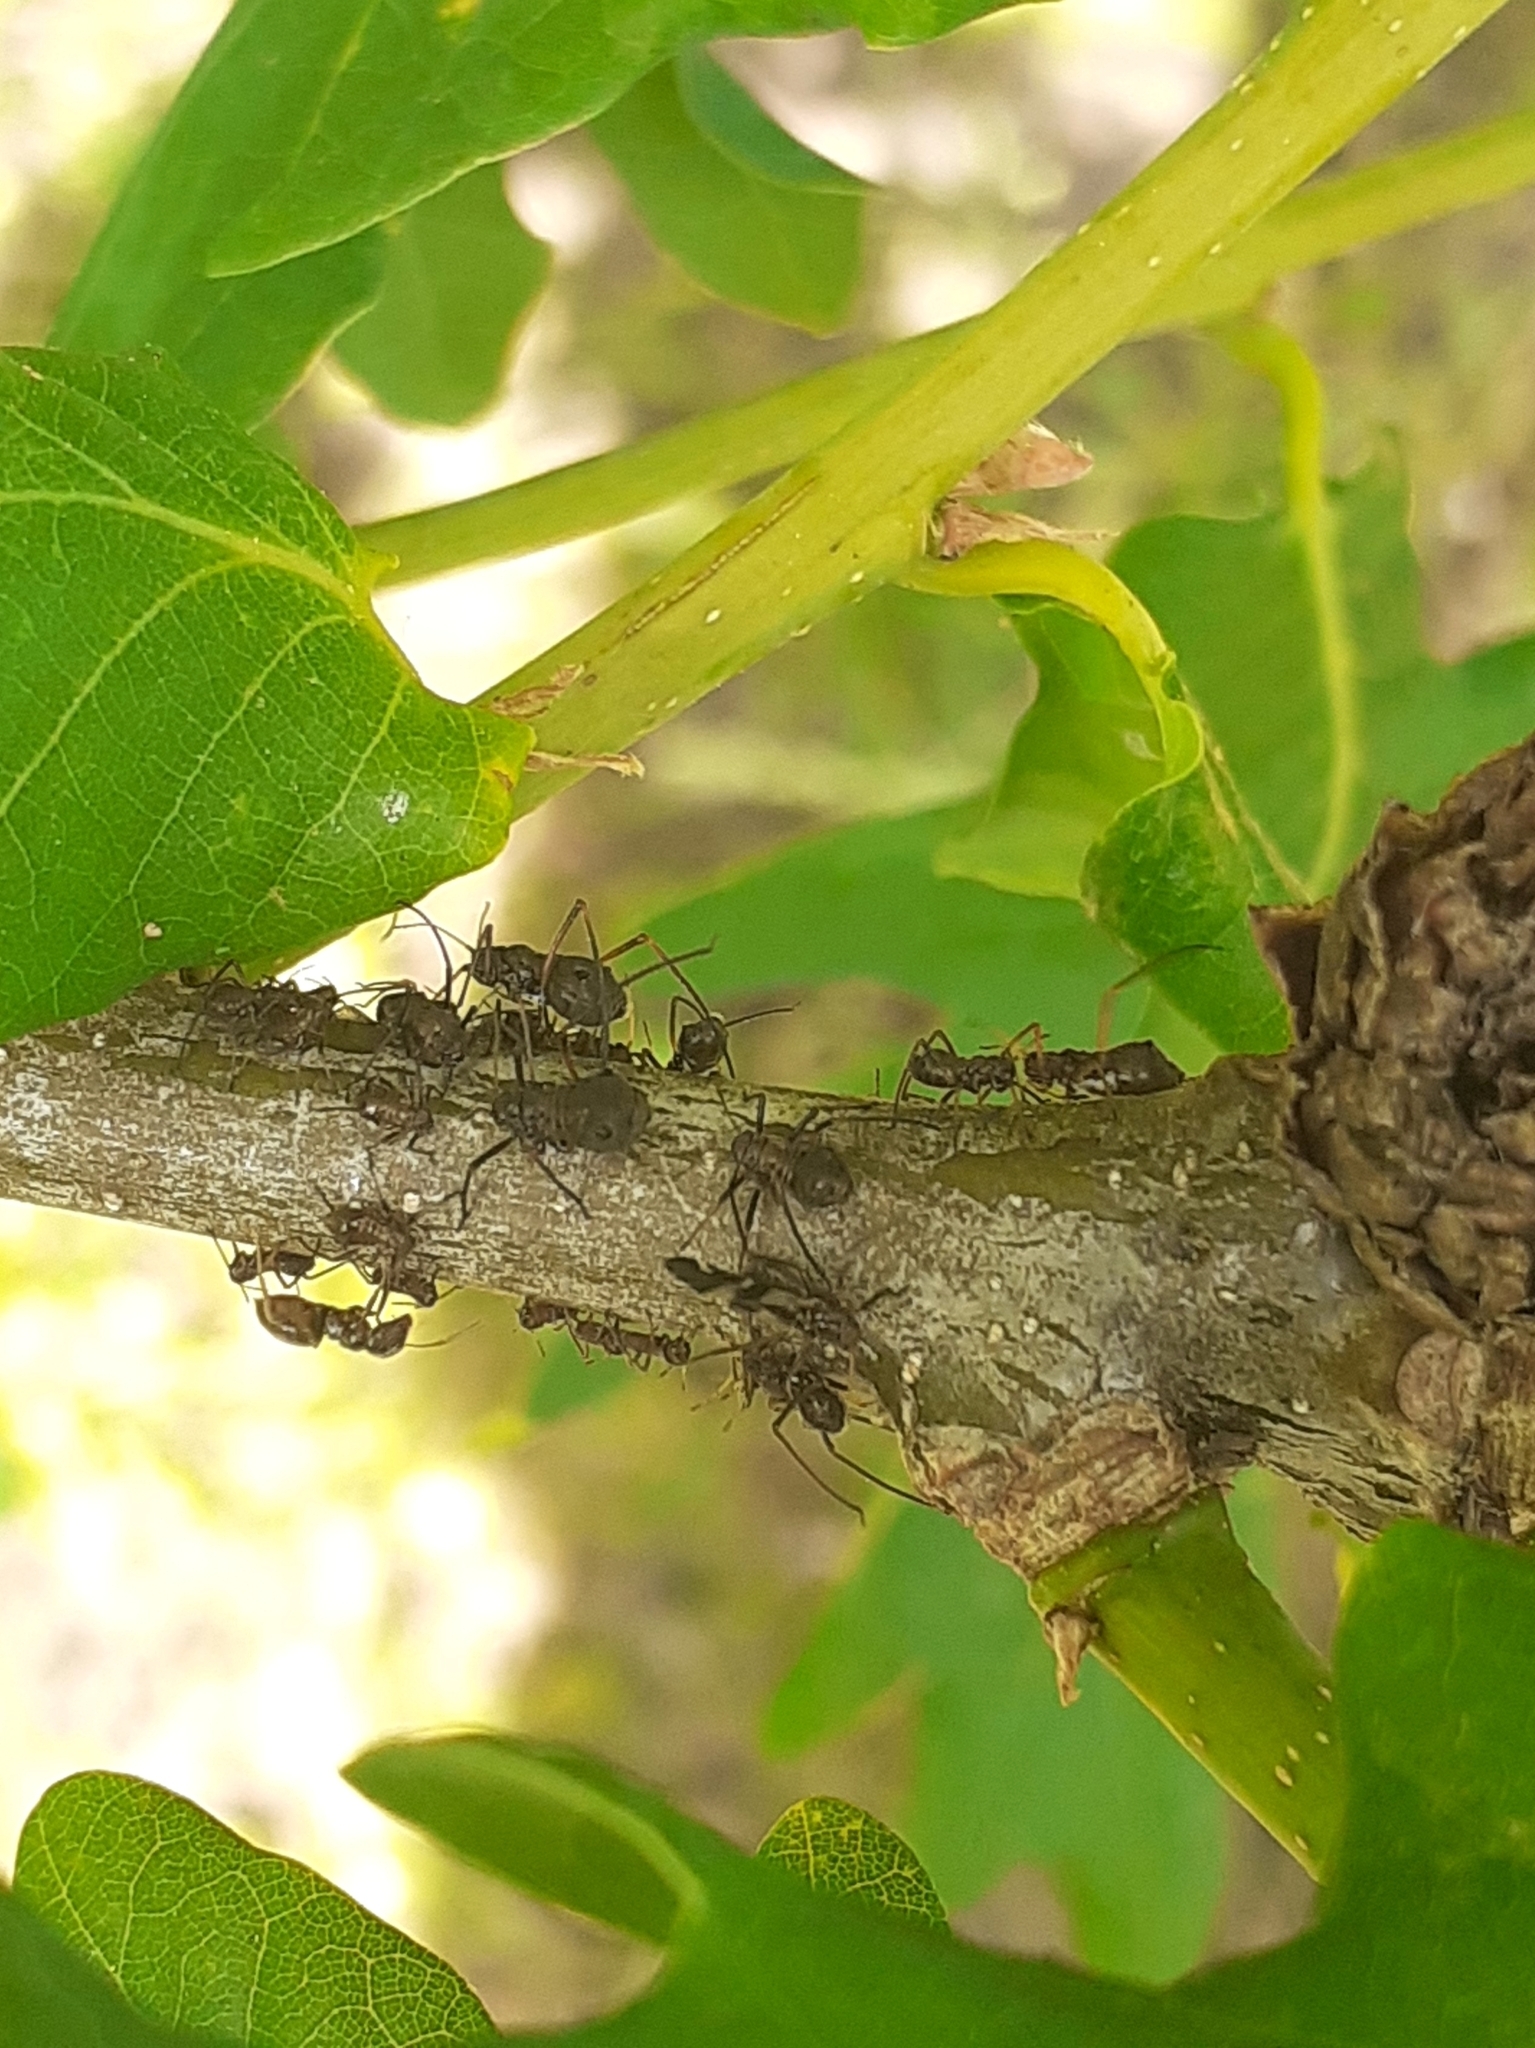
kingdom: Animalia
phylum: Arthropoda
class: Insecta
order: Hemiptera
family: Aphididae
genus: Lachnus
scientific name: Lachnus
